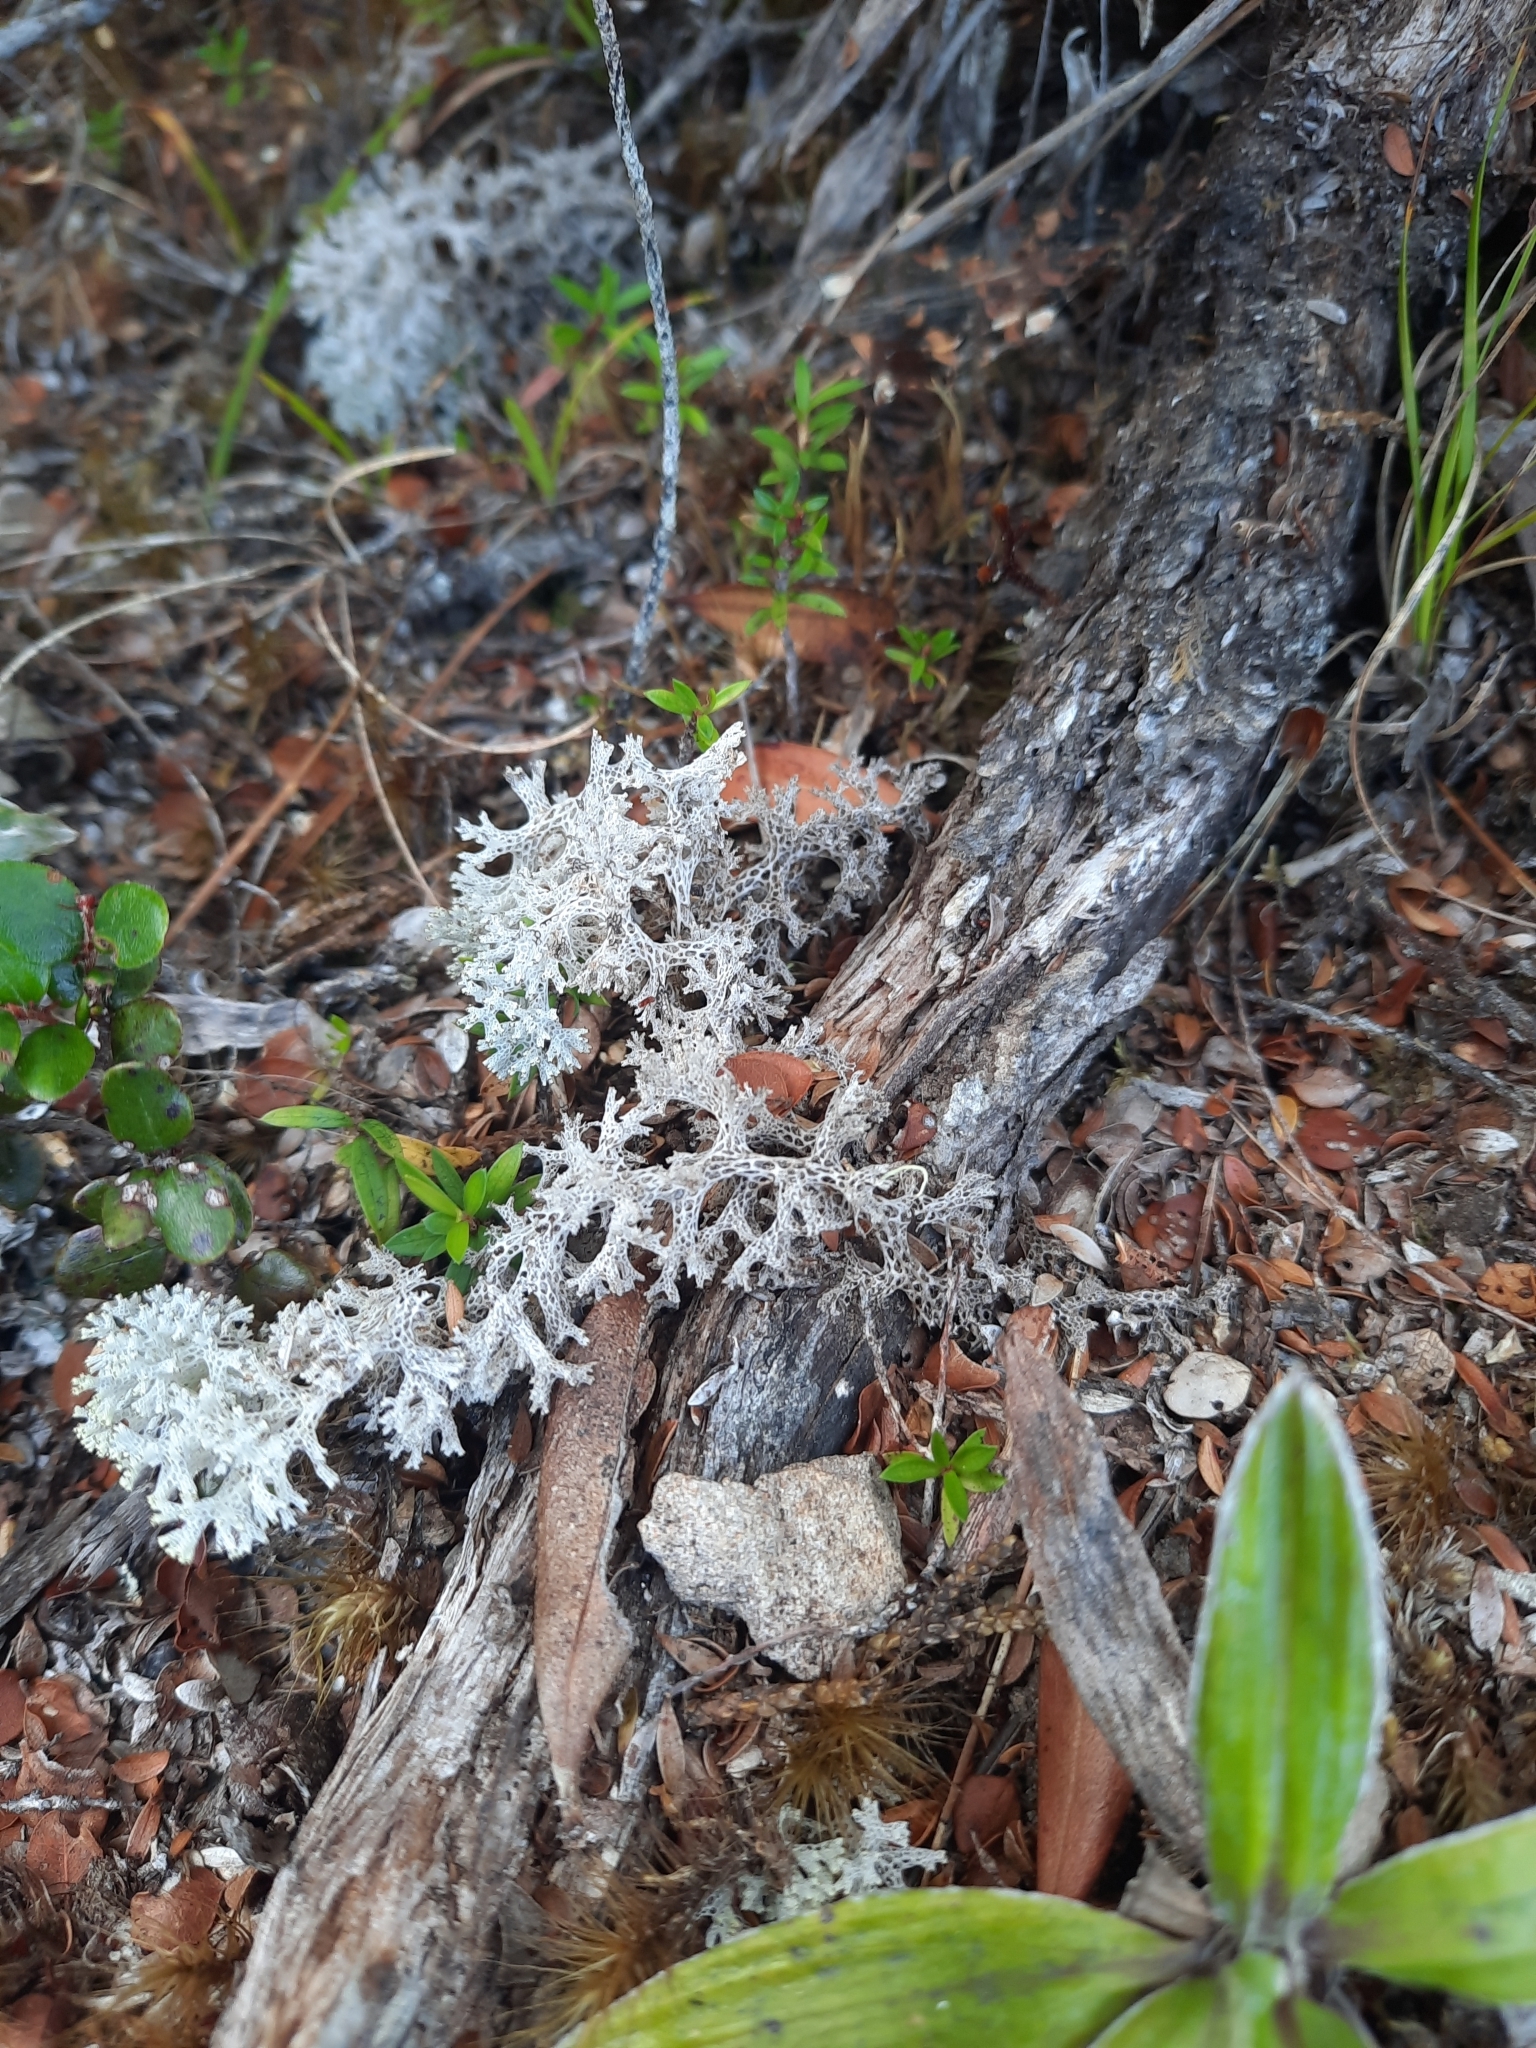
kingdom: Fungi
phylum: Ascomycota
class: Lecanoromycetes
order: Lecanorales
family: Cladoniaceae
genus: Pulchrocladia
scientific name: Pulchrocladia retipora
